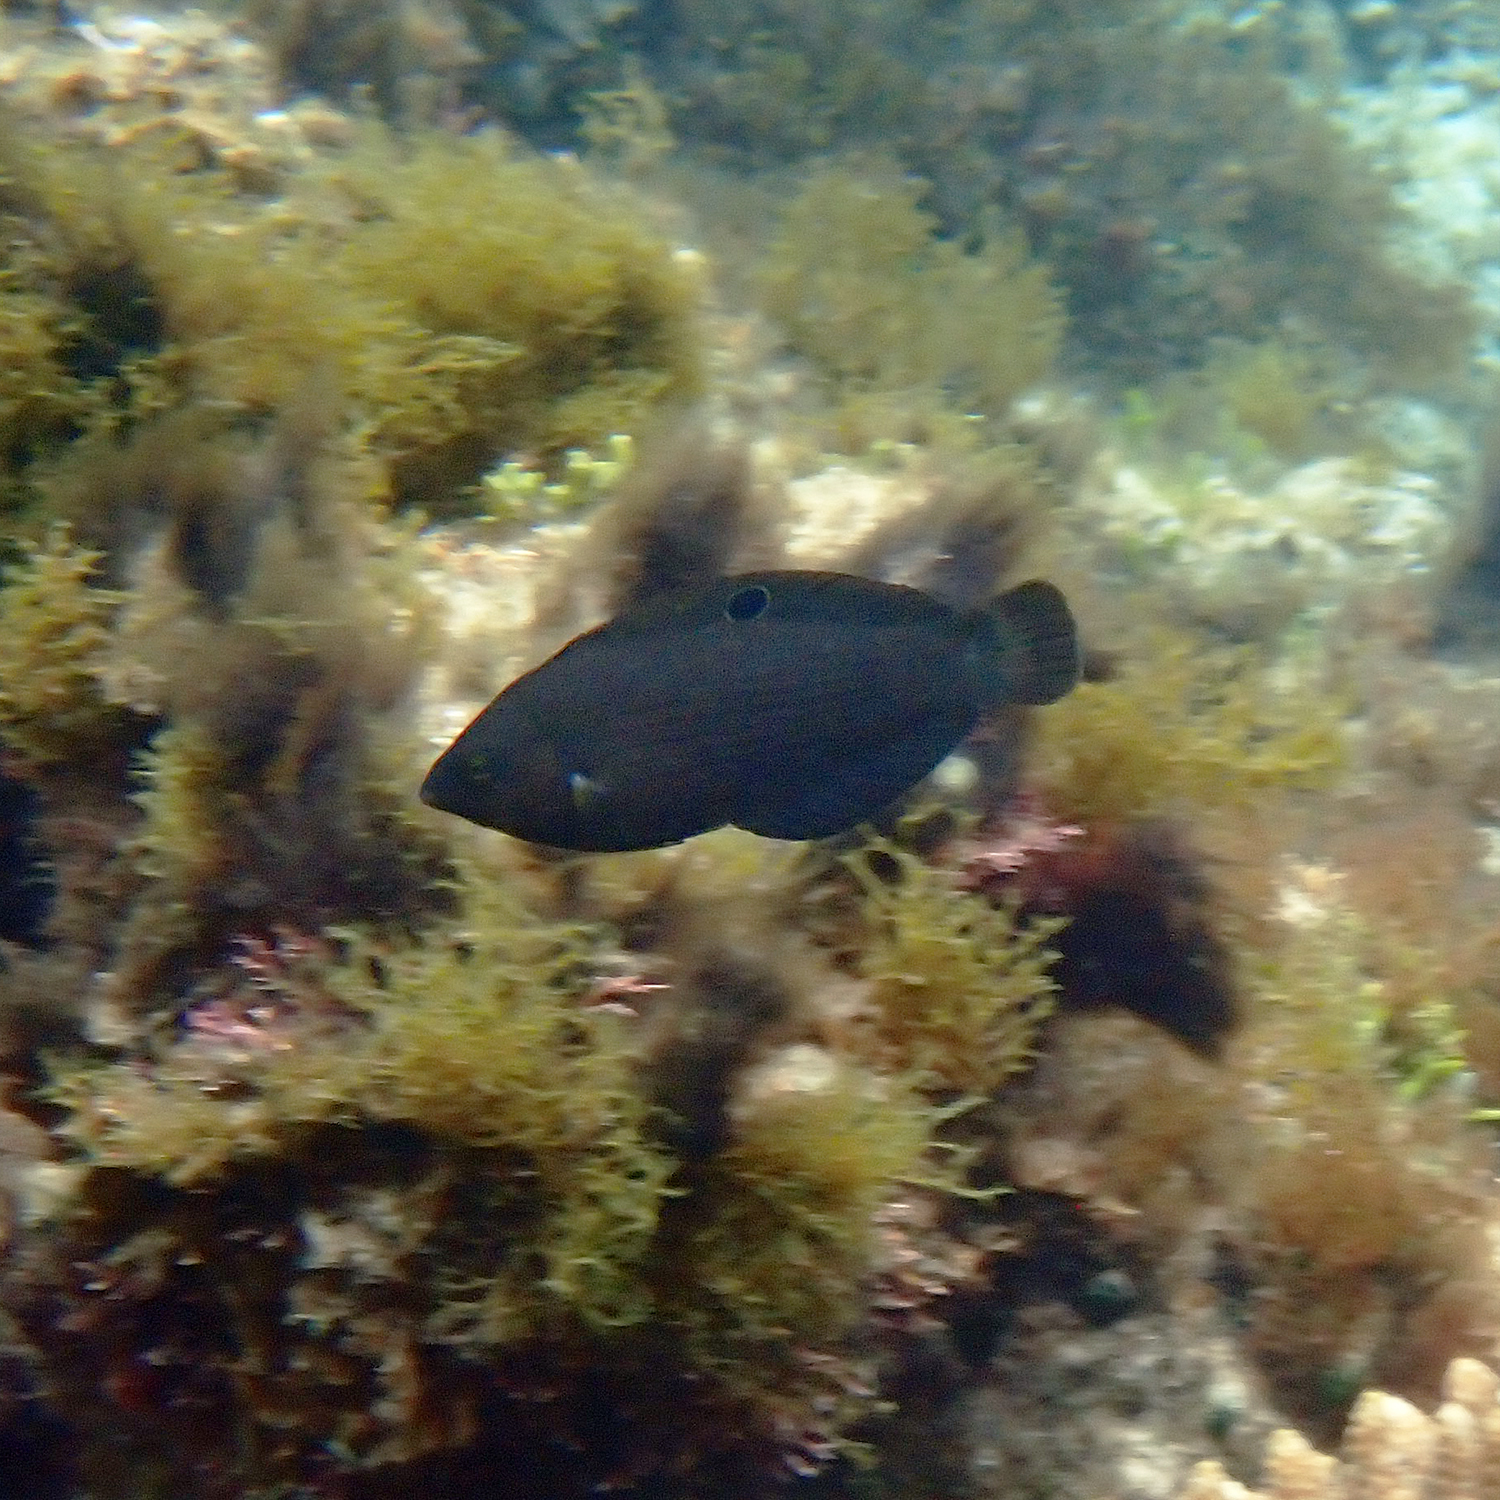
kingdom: Animalia
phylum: Chordata
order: Perciformes
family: Labridae
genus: Halichoeres
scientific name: Halichoeres
